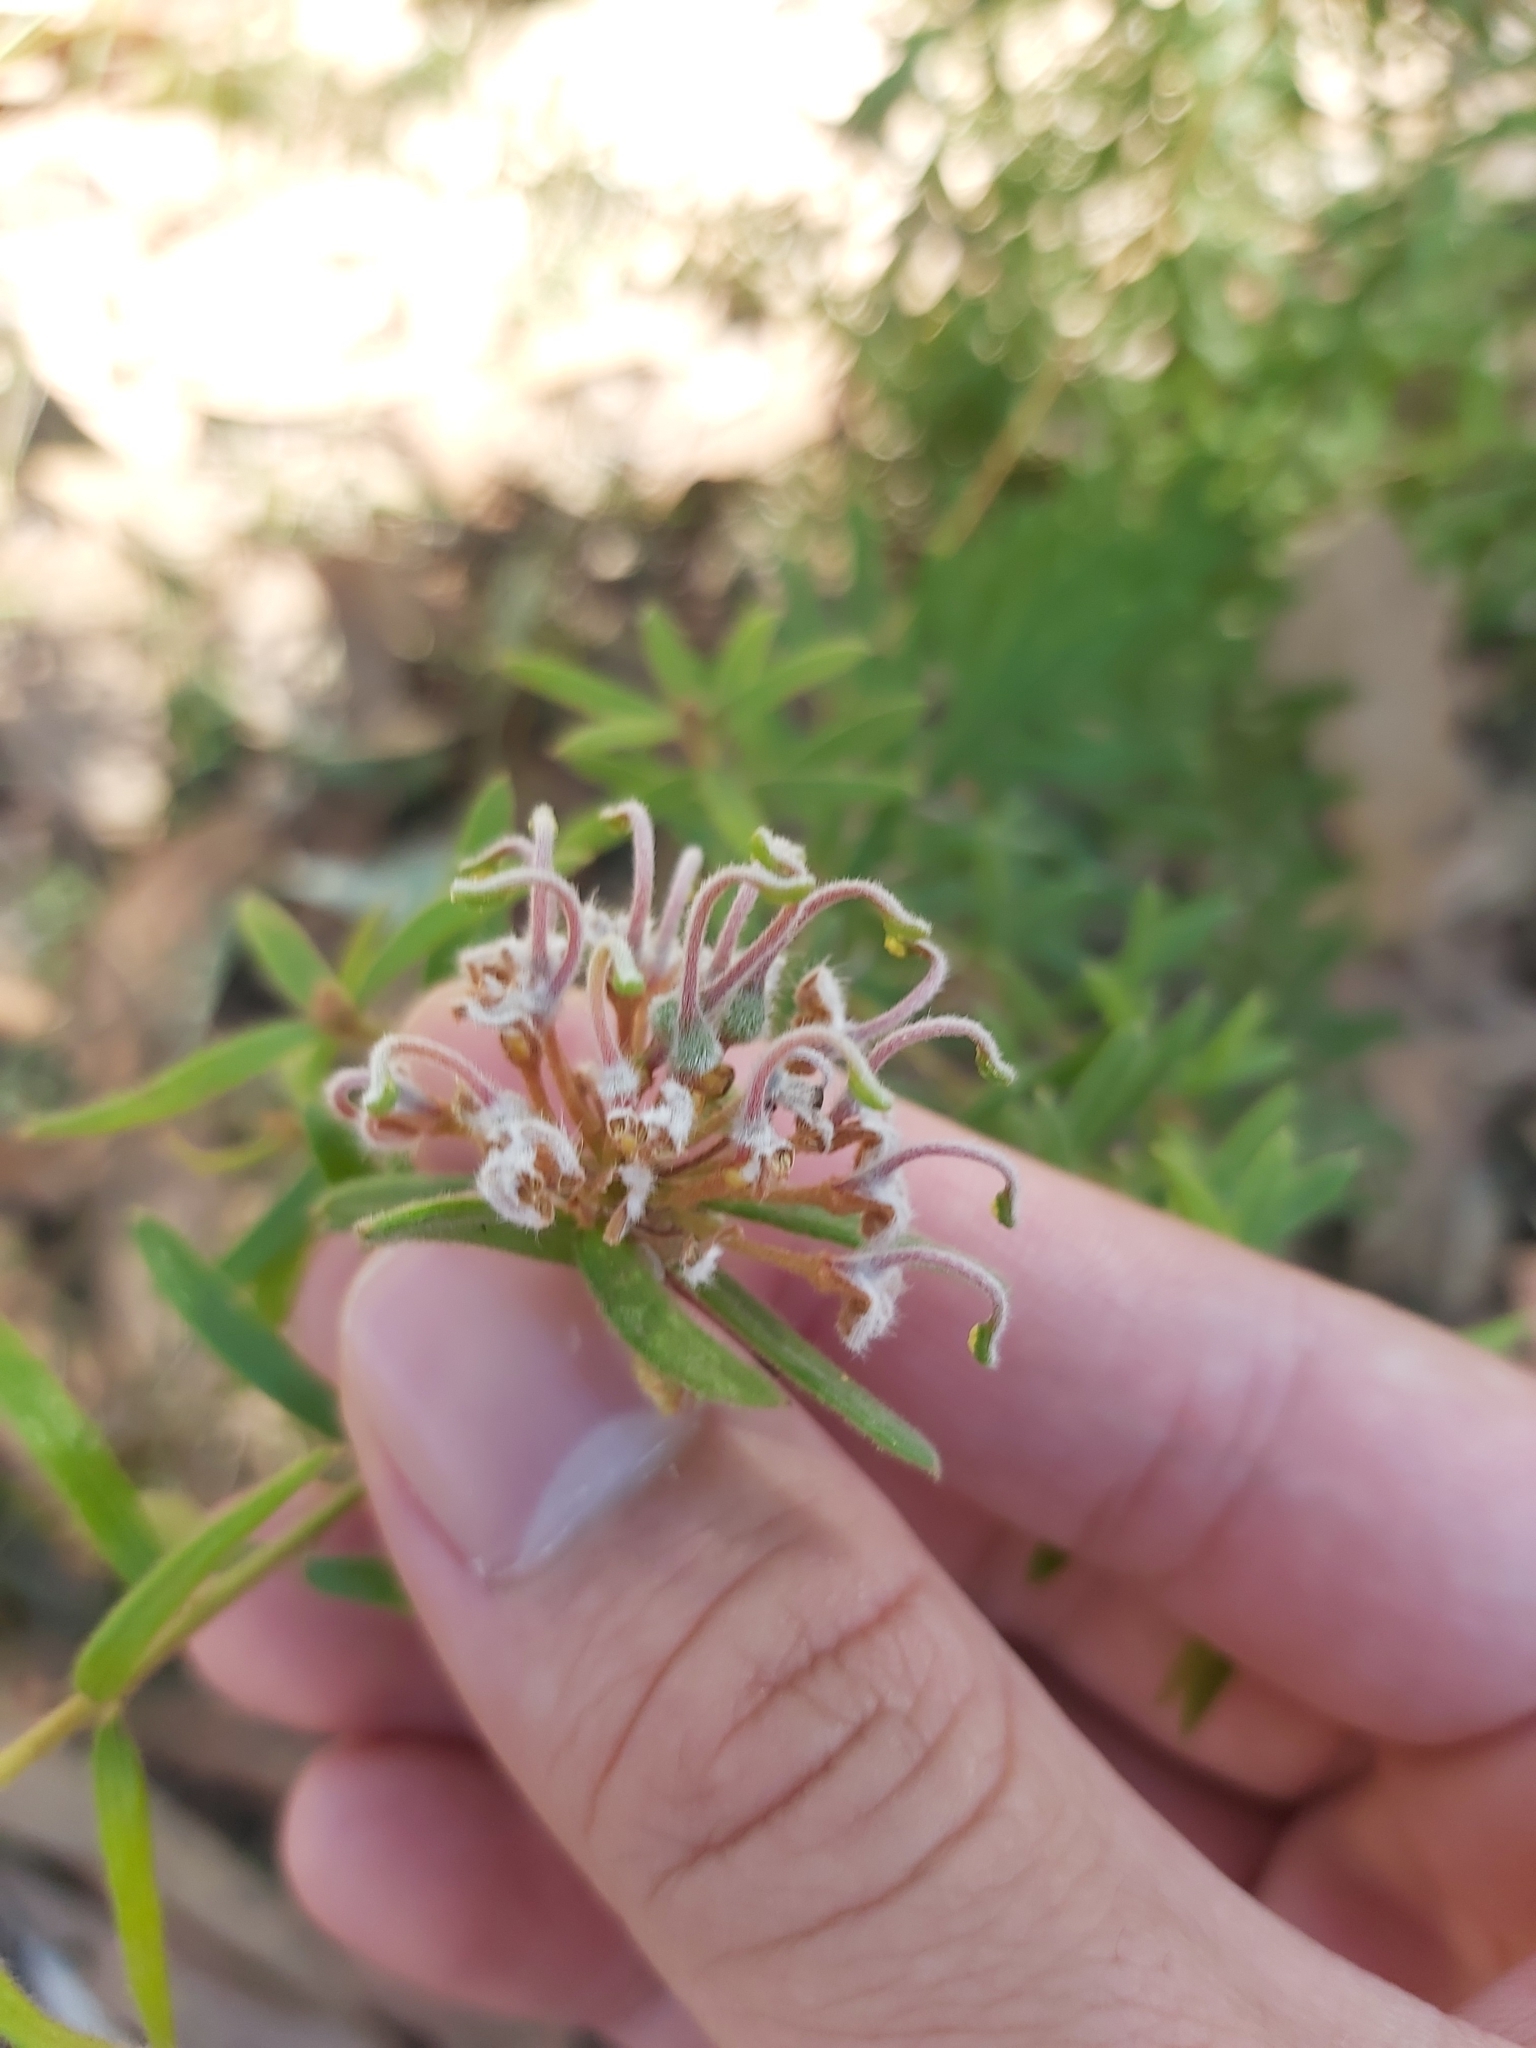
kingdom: Plantae
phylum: Tracheophyta
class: Magnoliopsida
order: Proteales
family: Proteaceae
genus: Grevillea
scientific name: Grevillea phylicoides
